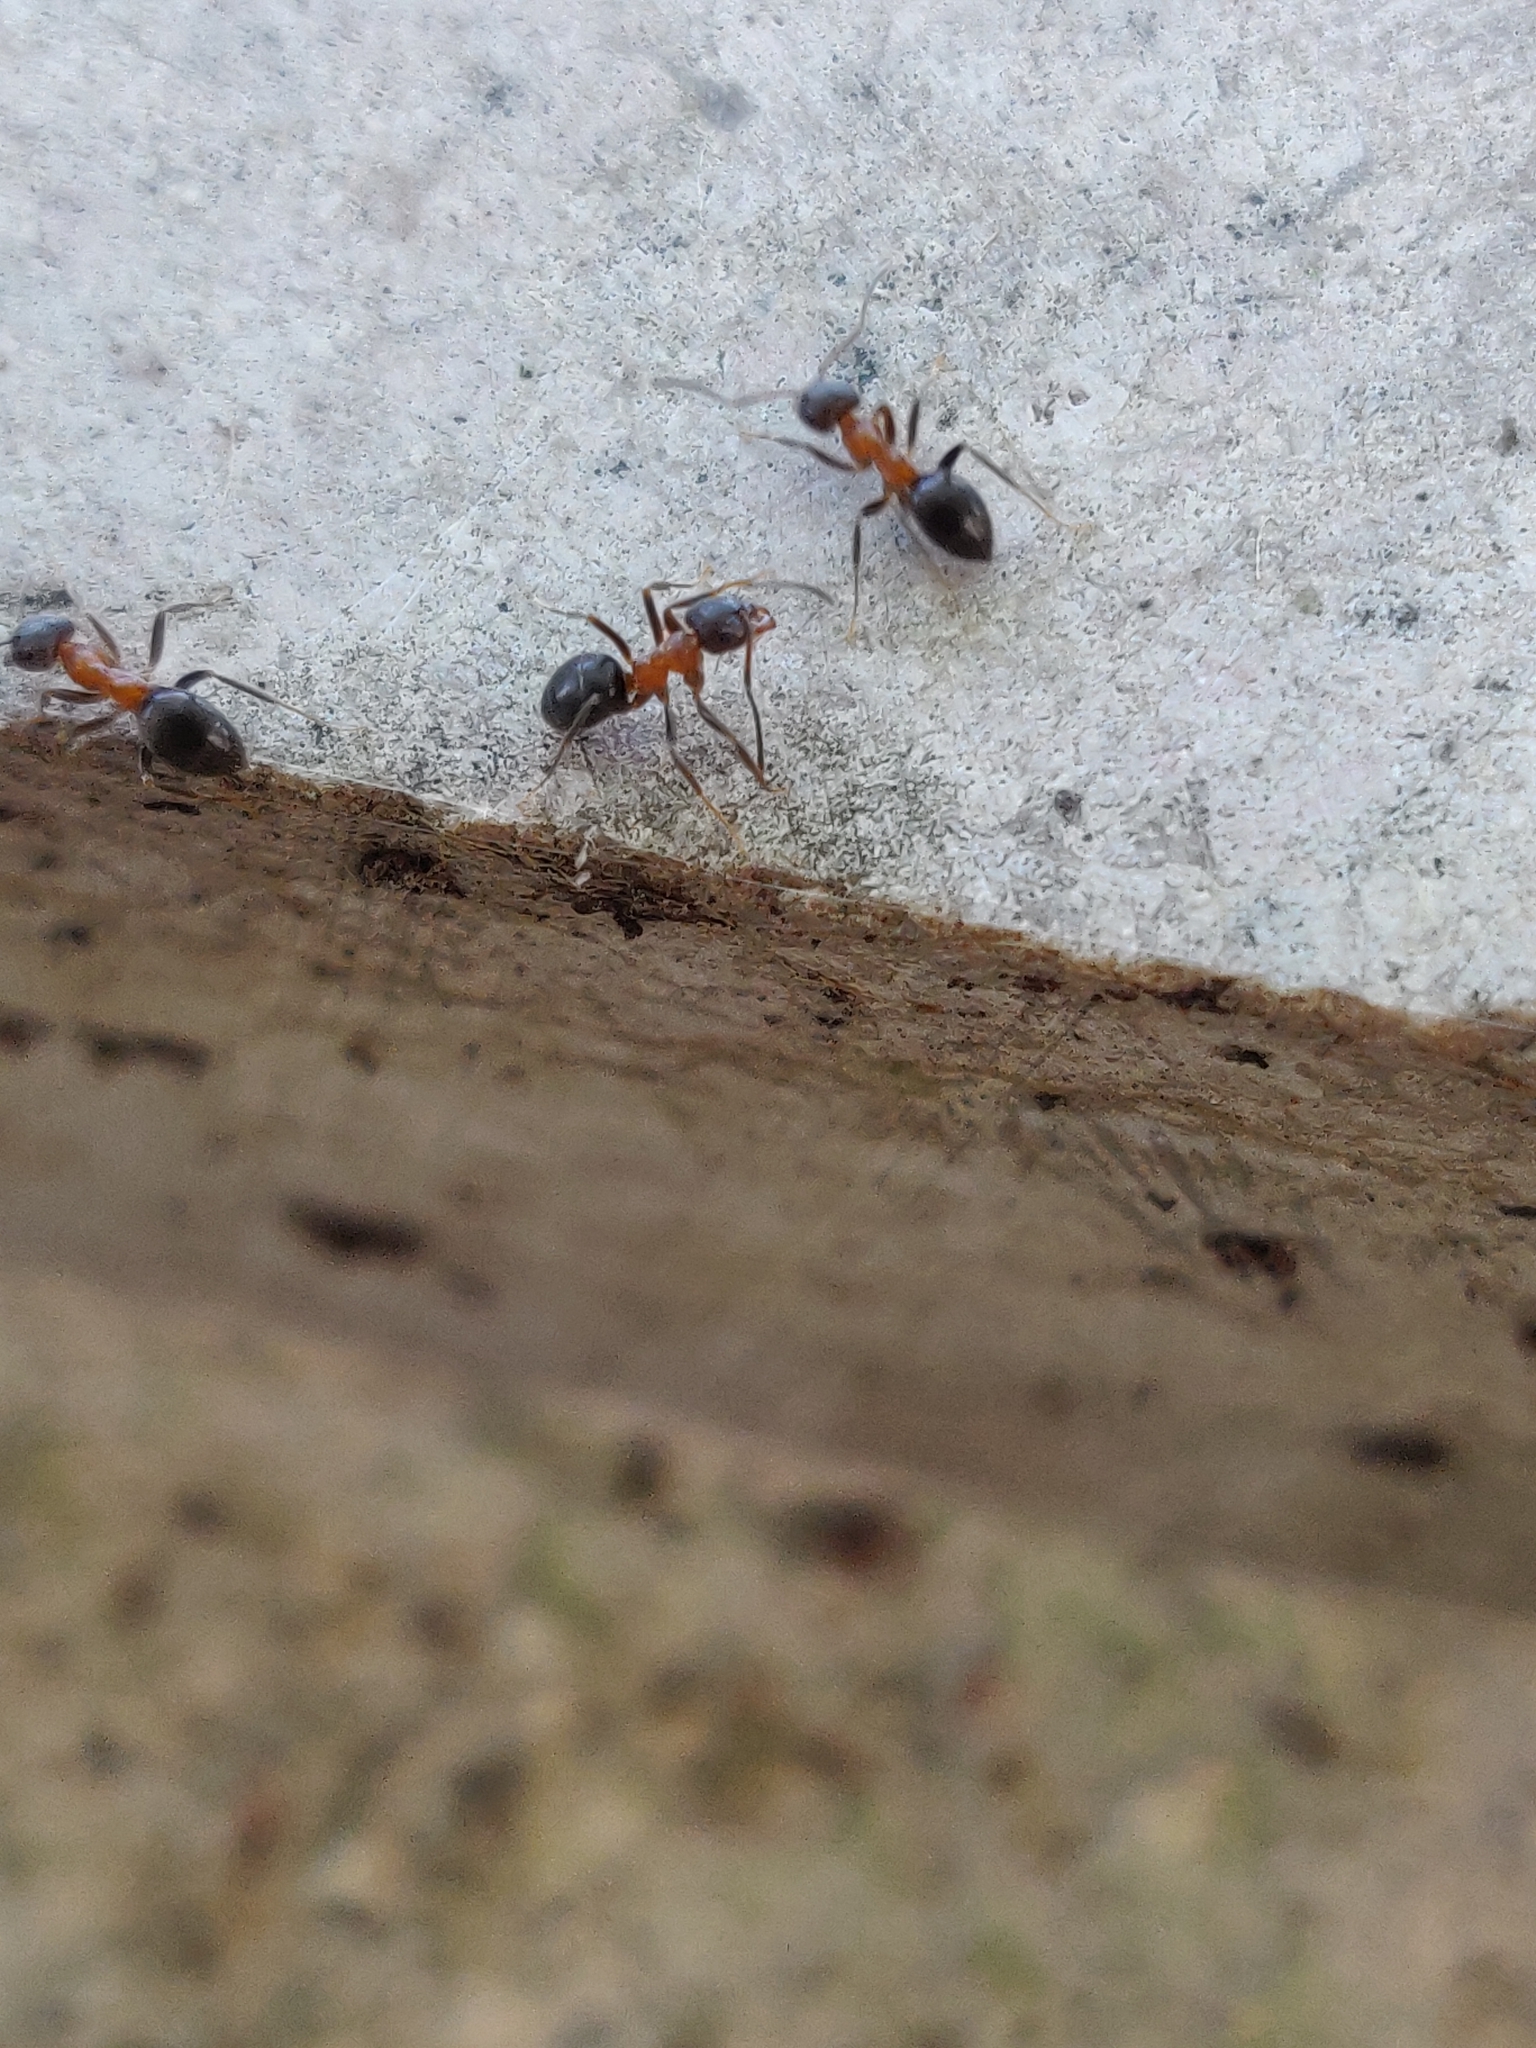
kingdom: Animalia
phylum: Arthropoda
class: Insecta
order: Hymenoptera
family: Formicidae
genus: Lasius
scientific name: Lasius emarginatus
